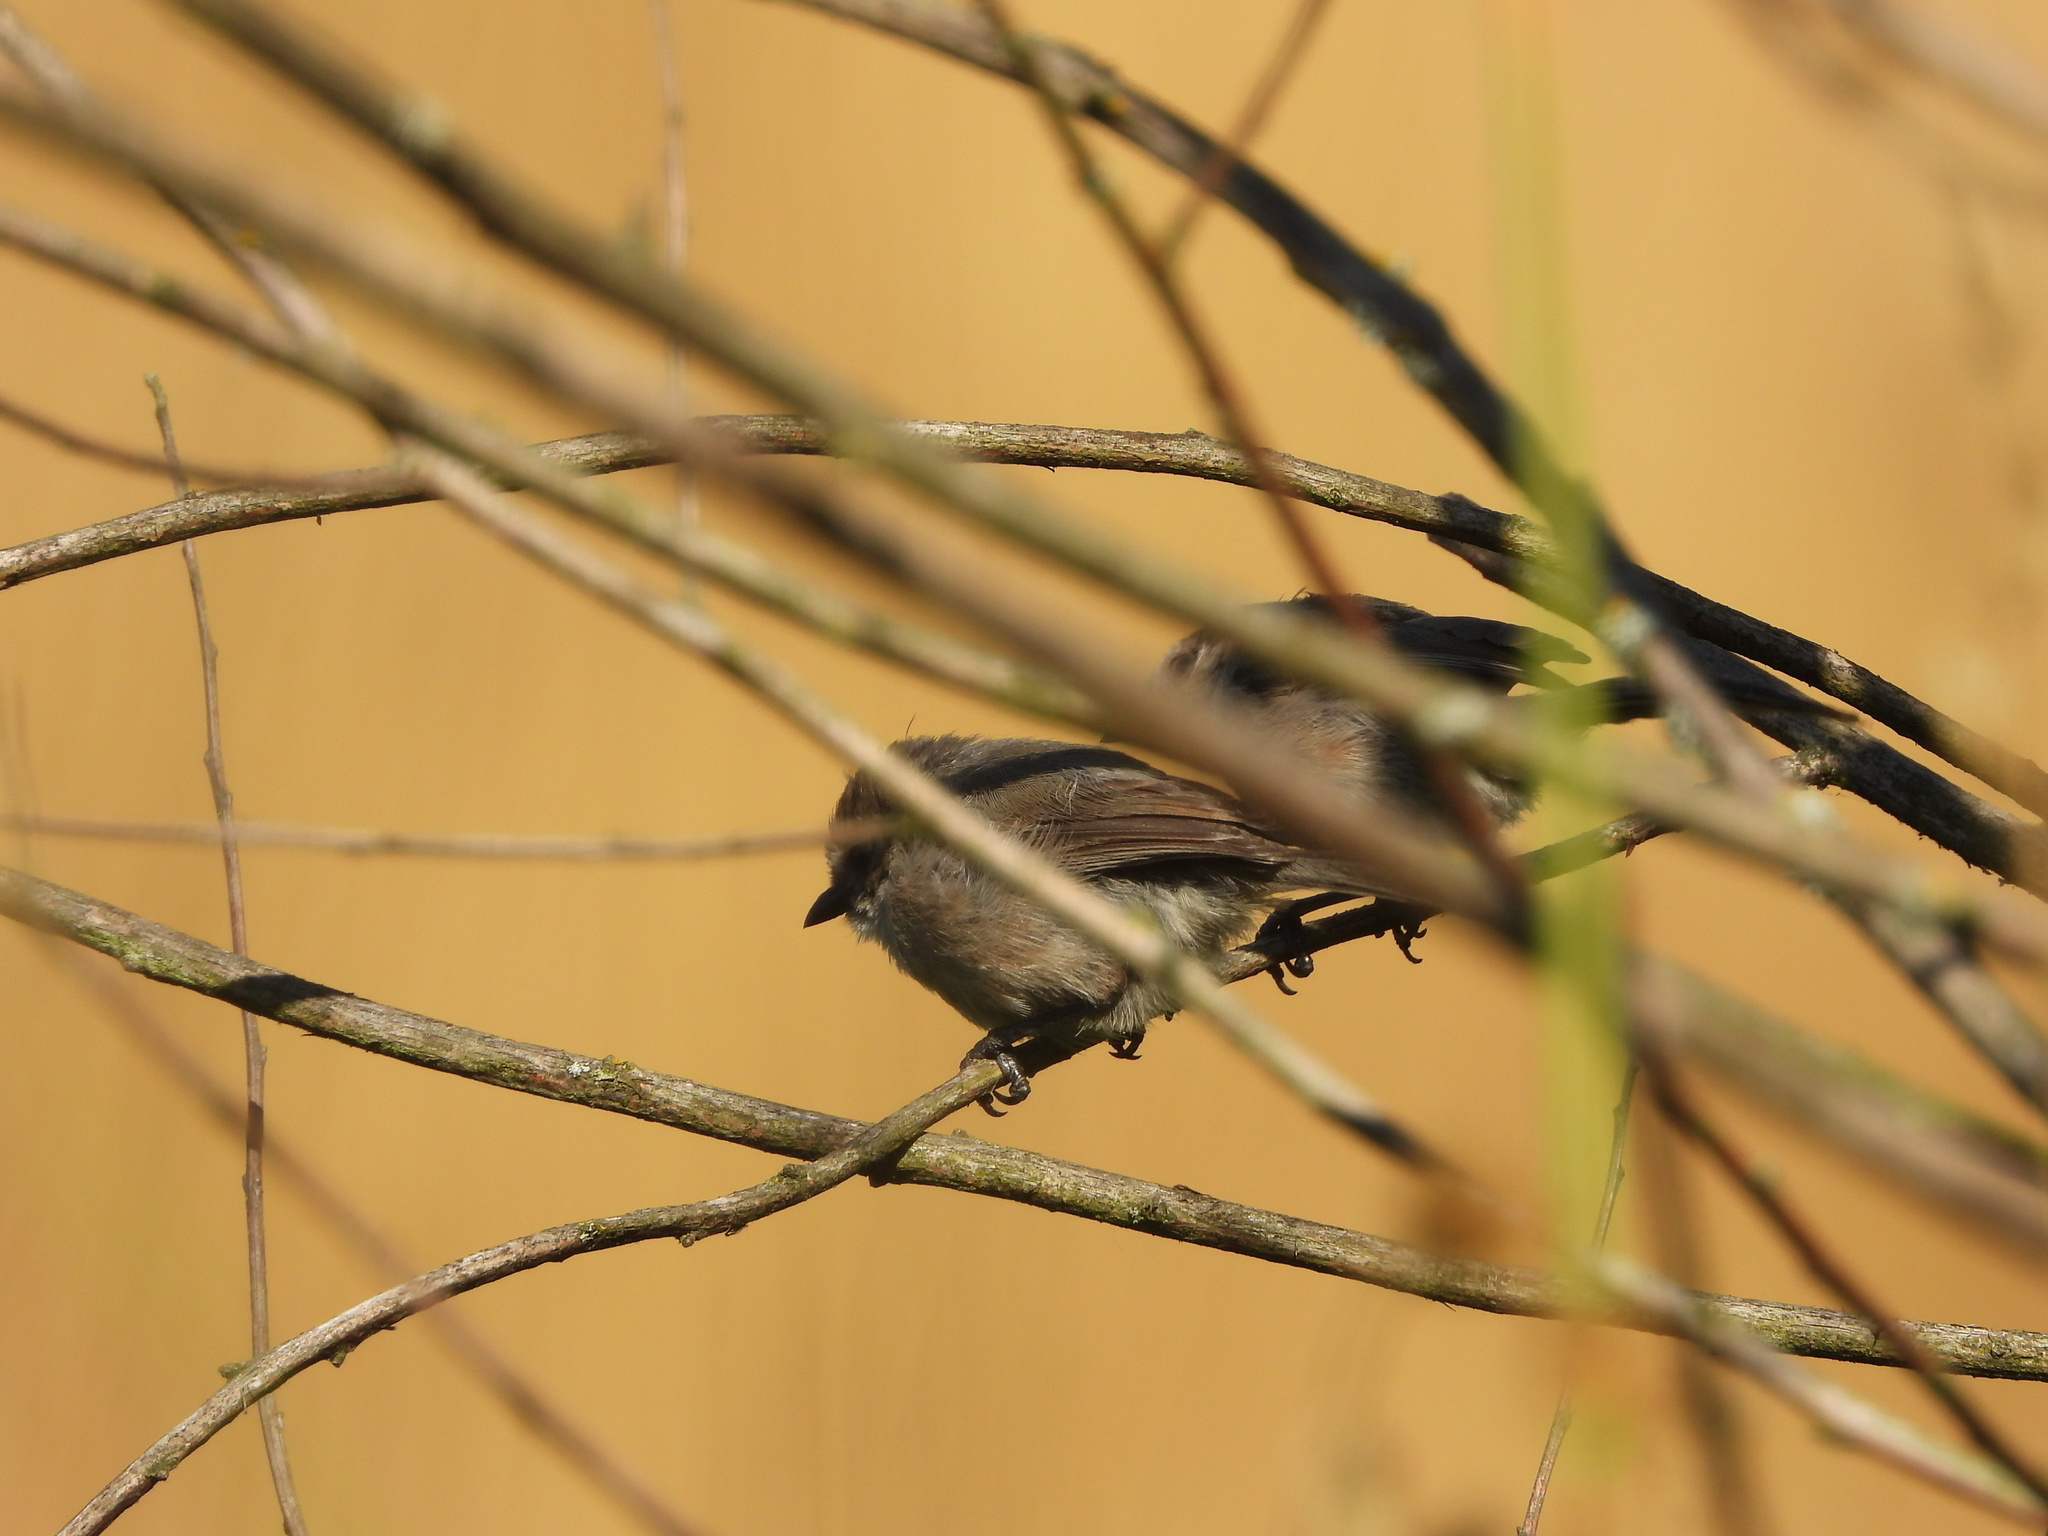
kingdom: Animalia
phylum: Chordata
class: Aves
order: Passeriformes
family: Aegithalidae
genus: Psaltriparus
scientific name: Psaltriparus minimus
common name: American bushtit
